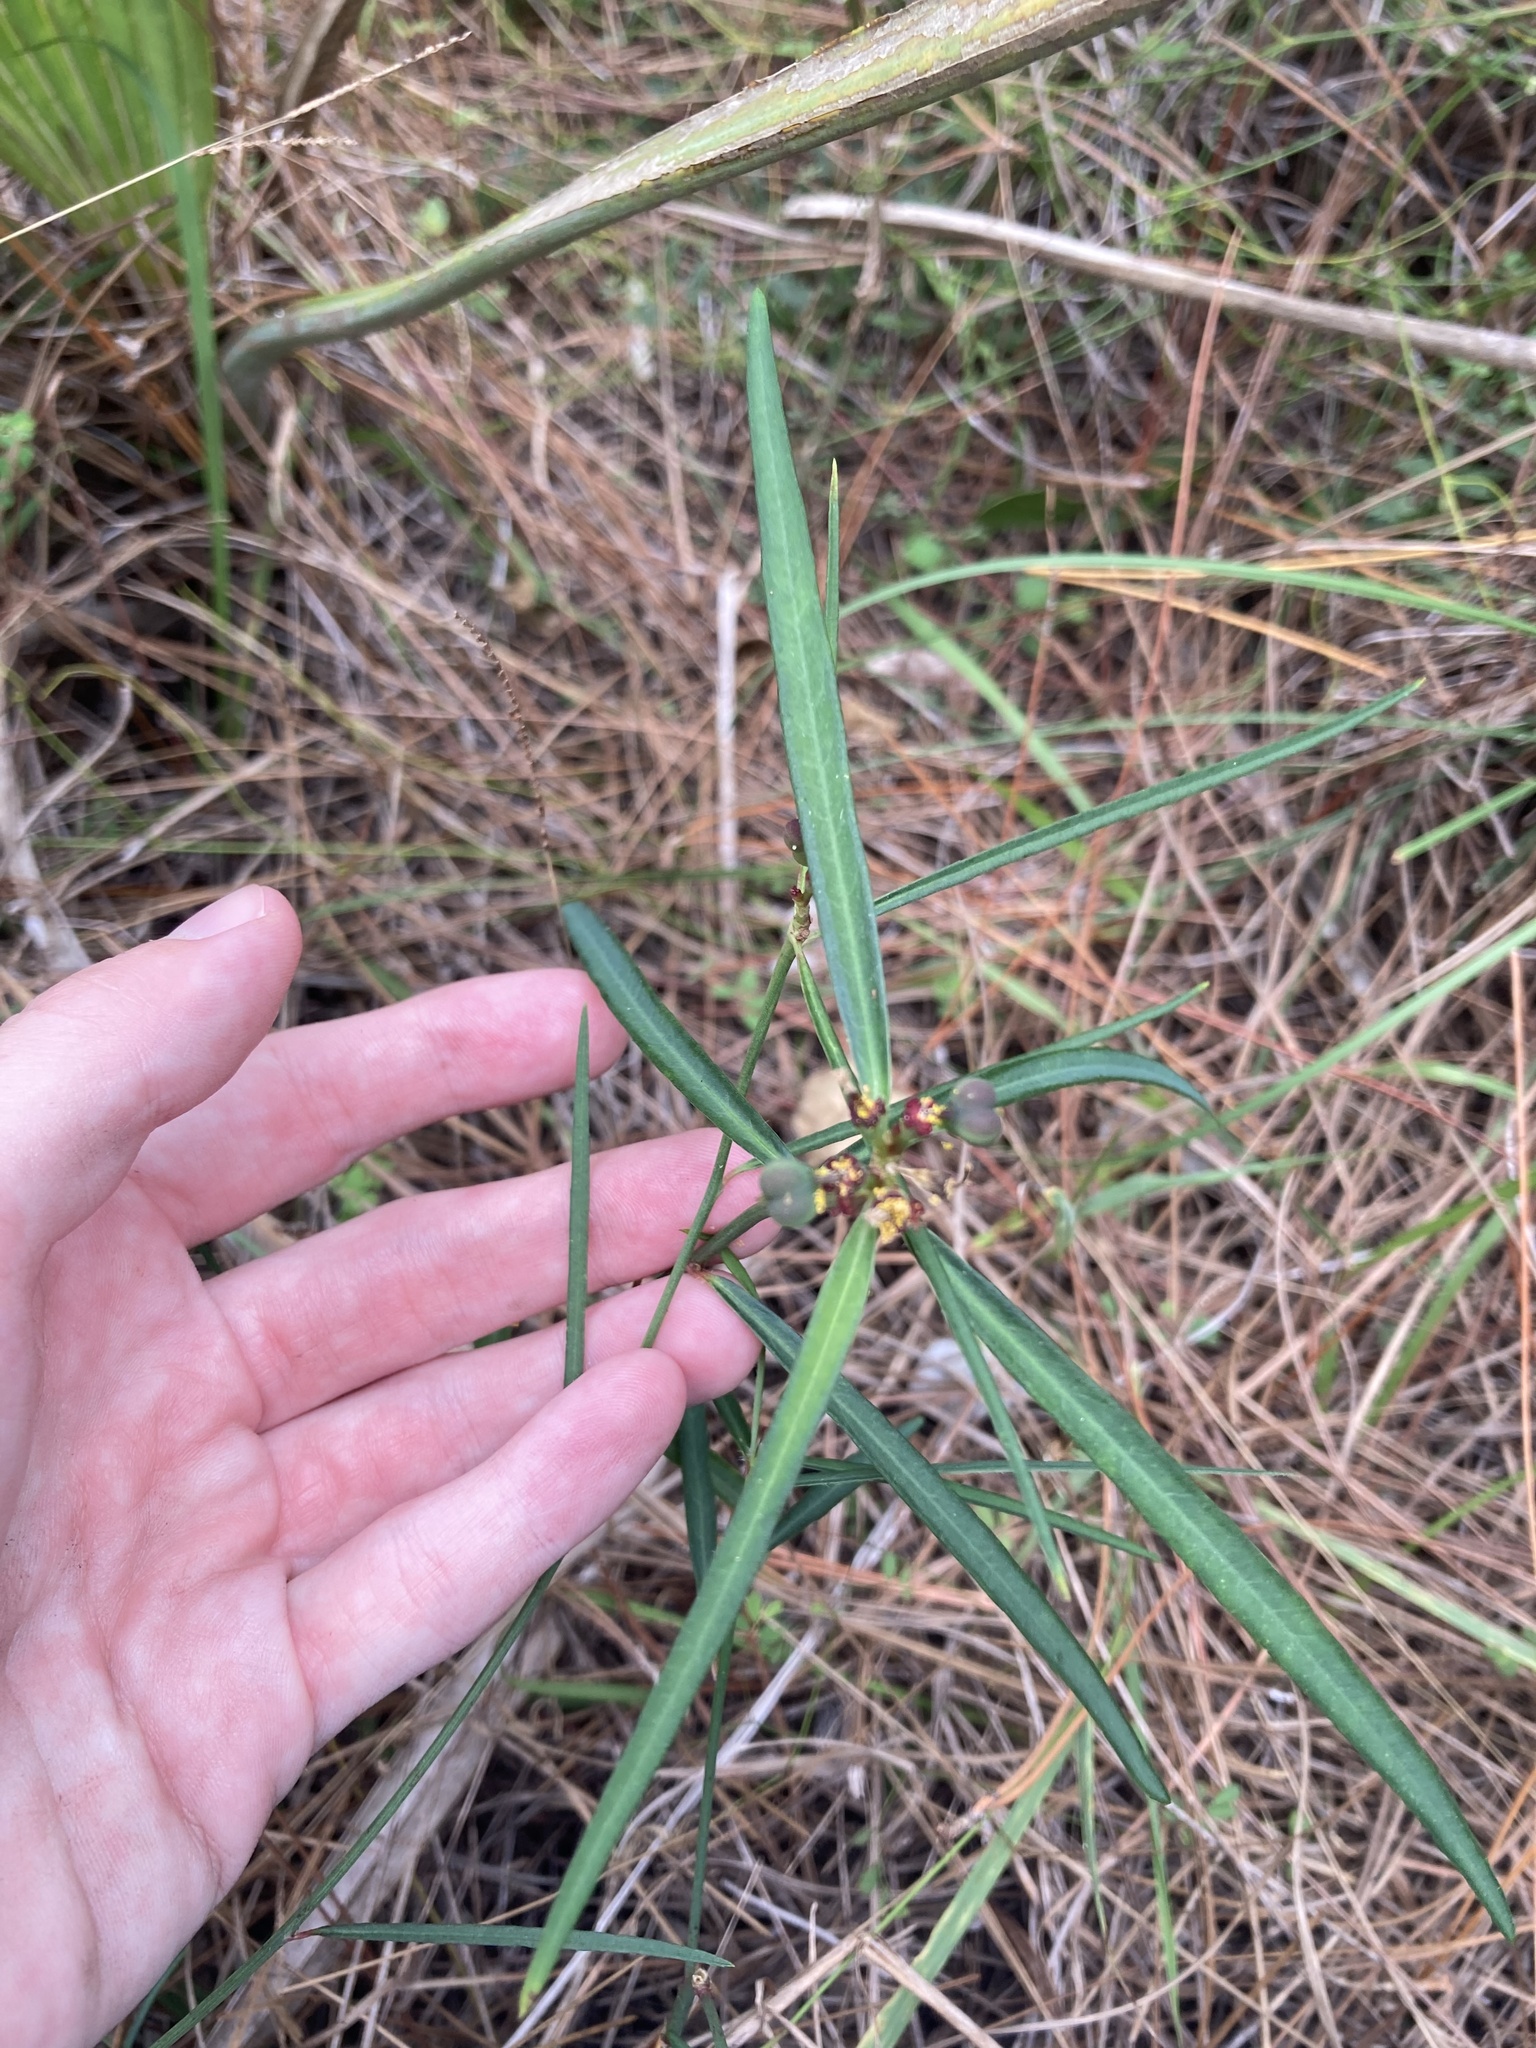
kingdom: Plantae
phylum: Tracheophyta
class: Magnoliopsida
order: Malpighiales
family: Euphorbiaceae
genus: Euphorbia
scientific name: Euphorbia pinetorum
